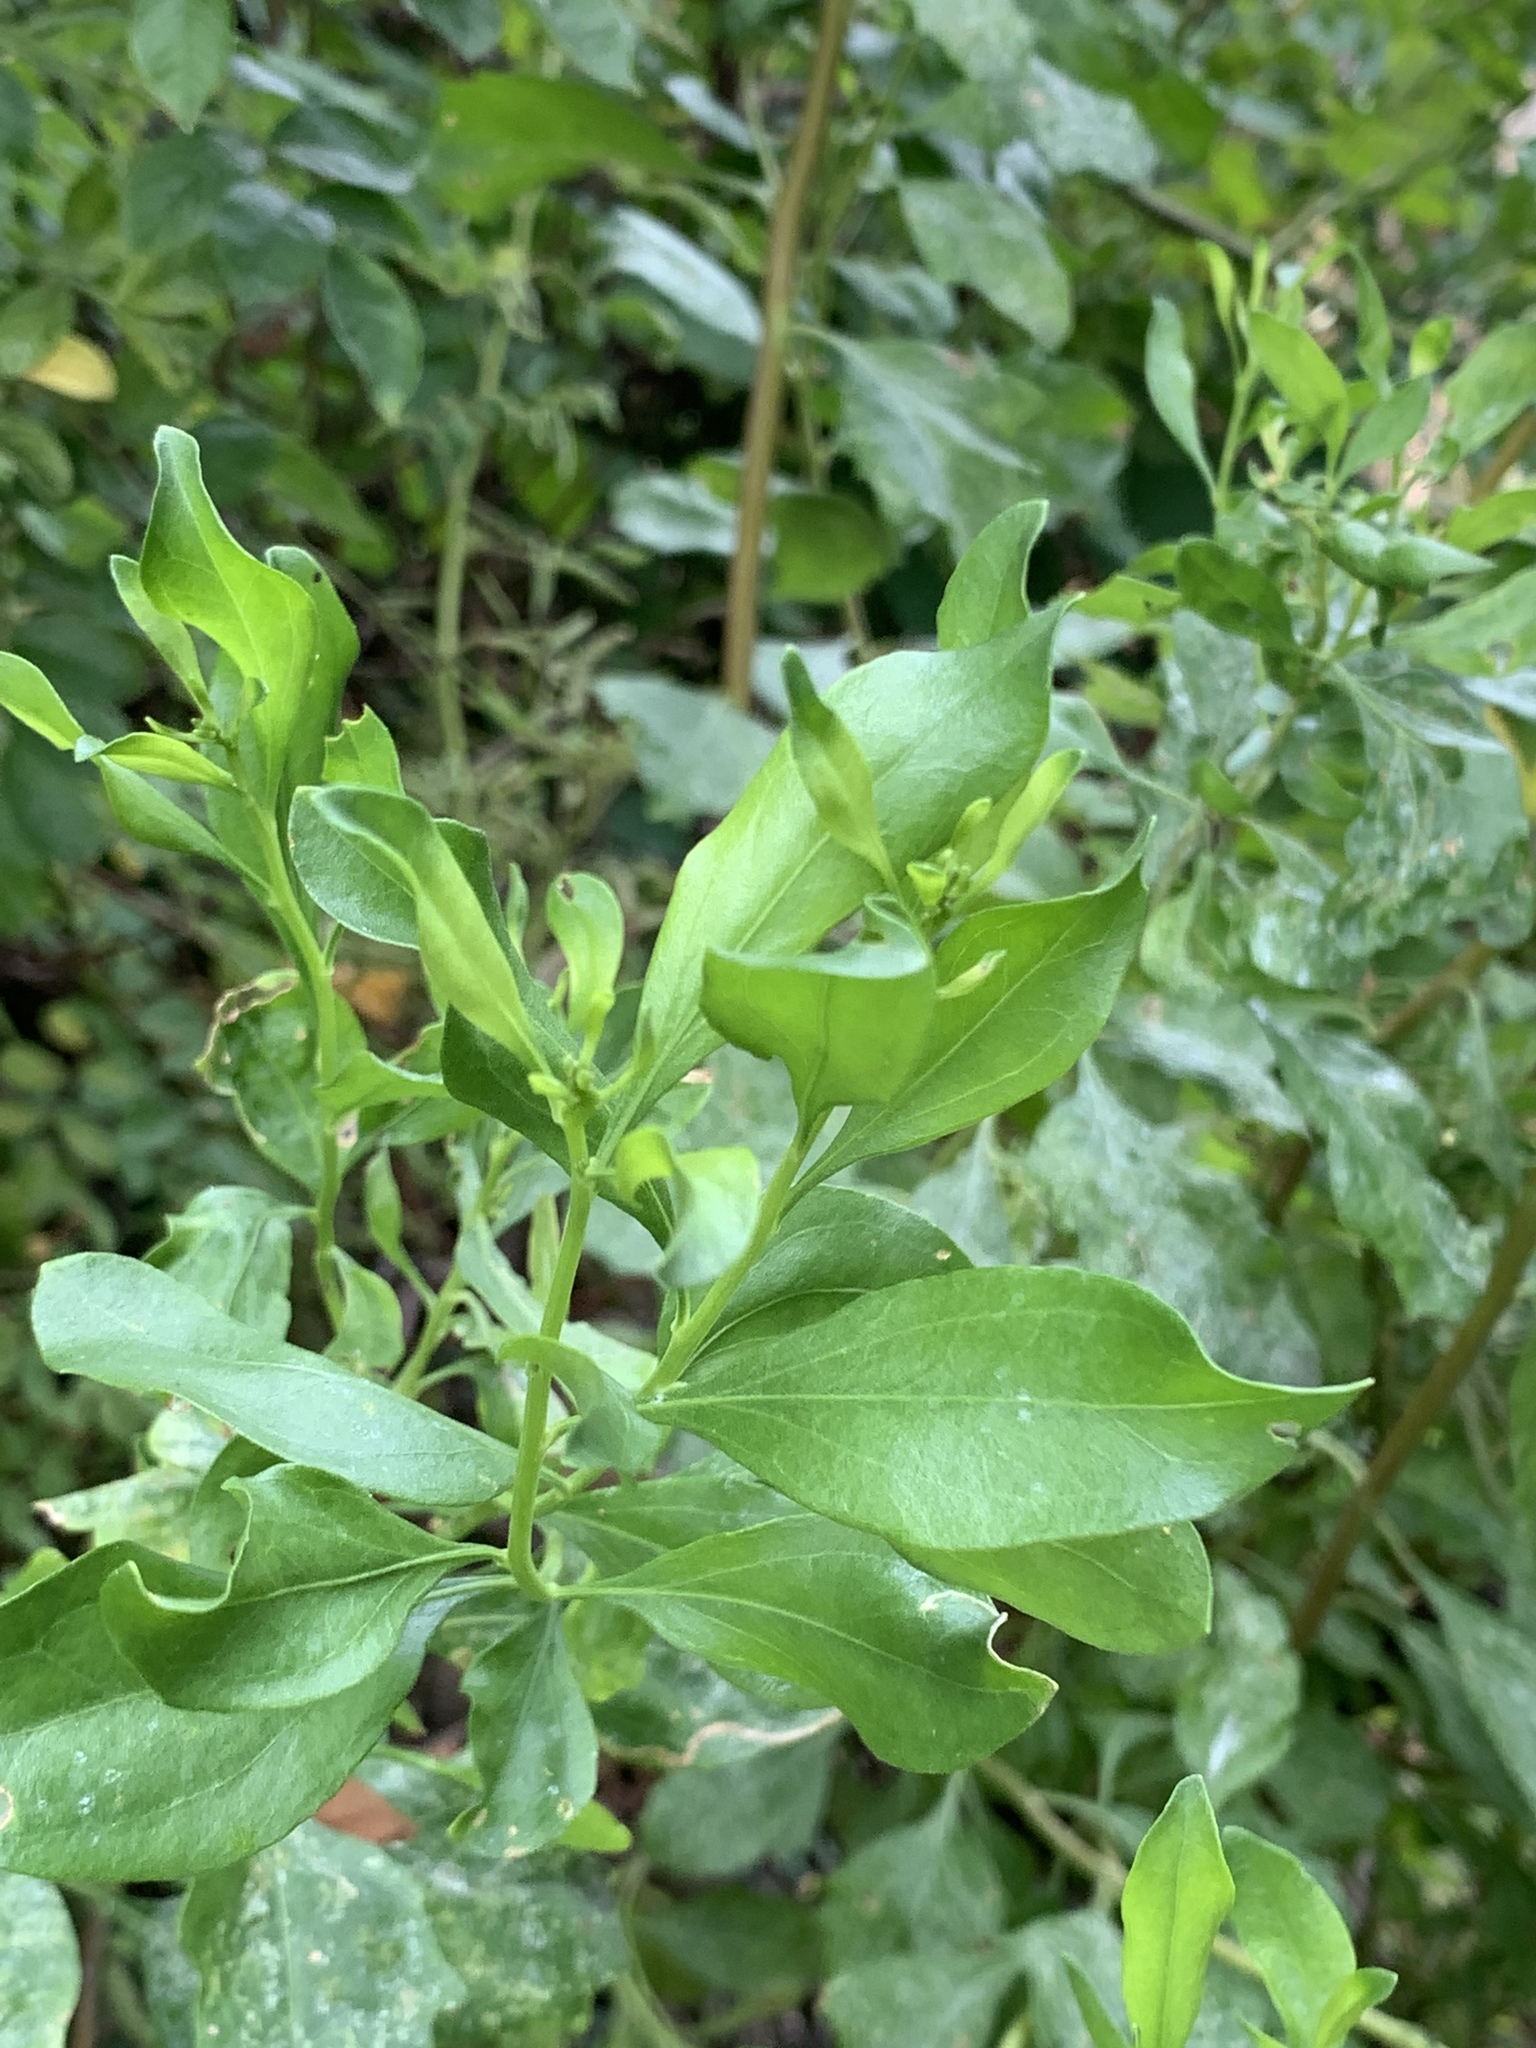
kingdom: Plantae
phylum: Tracheophyta
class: Magnoliopsida
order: Asterales
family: Asteraceae
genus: Baccharis
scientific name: Baccharis halimifolia
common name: Eastern baccharis
